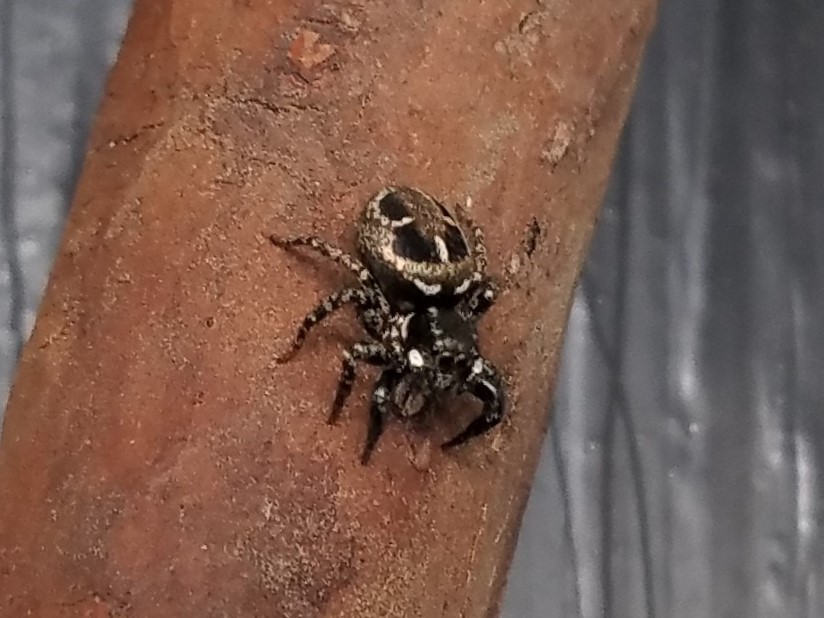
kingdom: Animalia
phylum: Arthropoda
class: Arachnida
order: Araneae
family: Salticidae
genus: Anasaitis
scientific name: Anasaitis canosa
